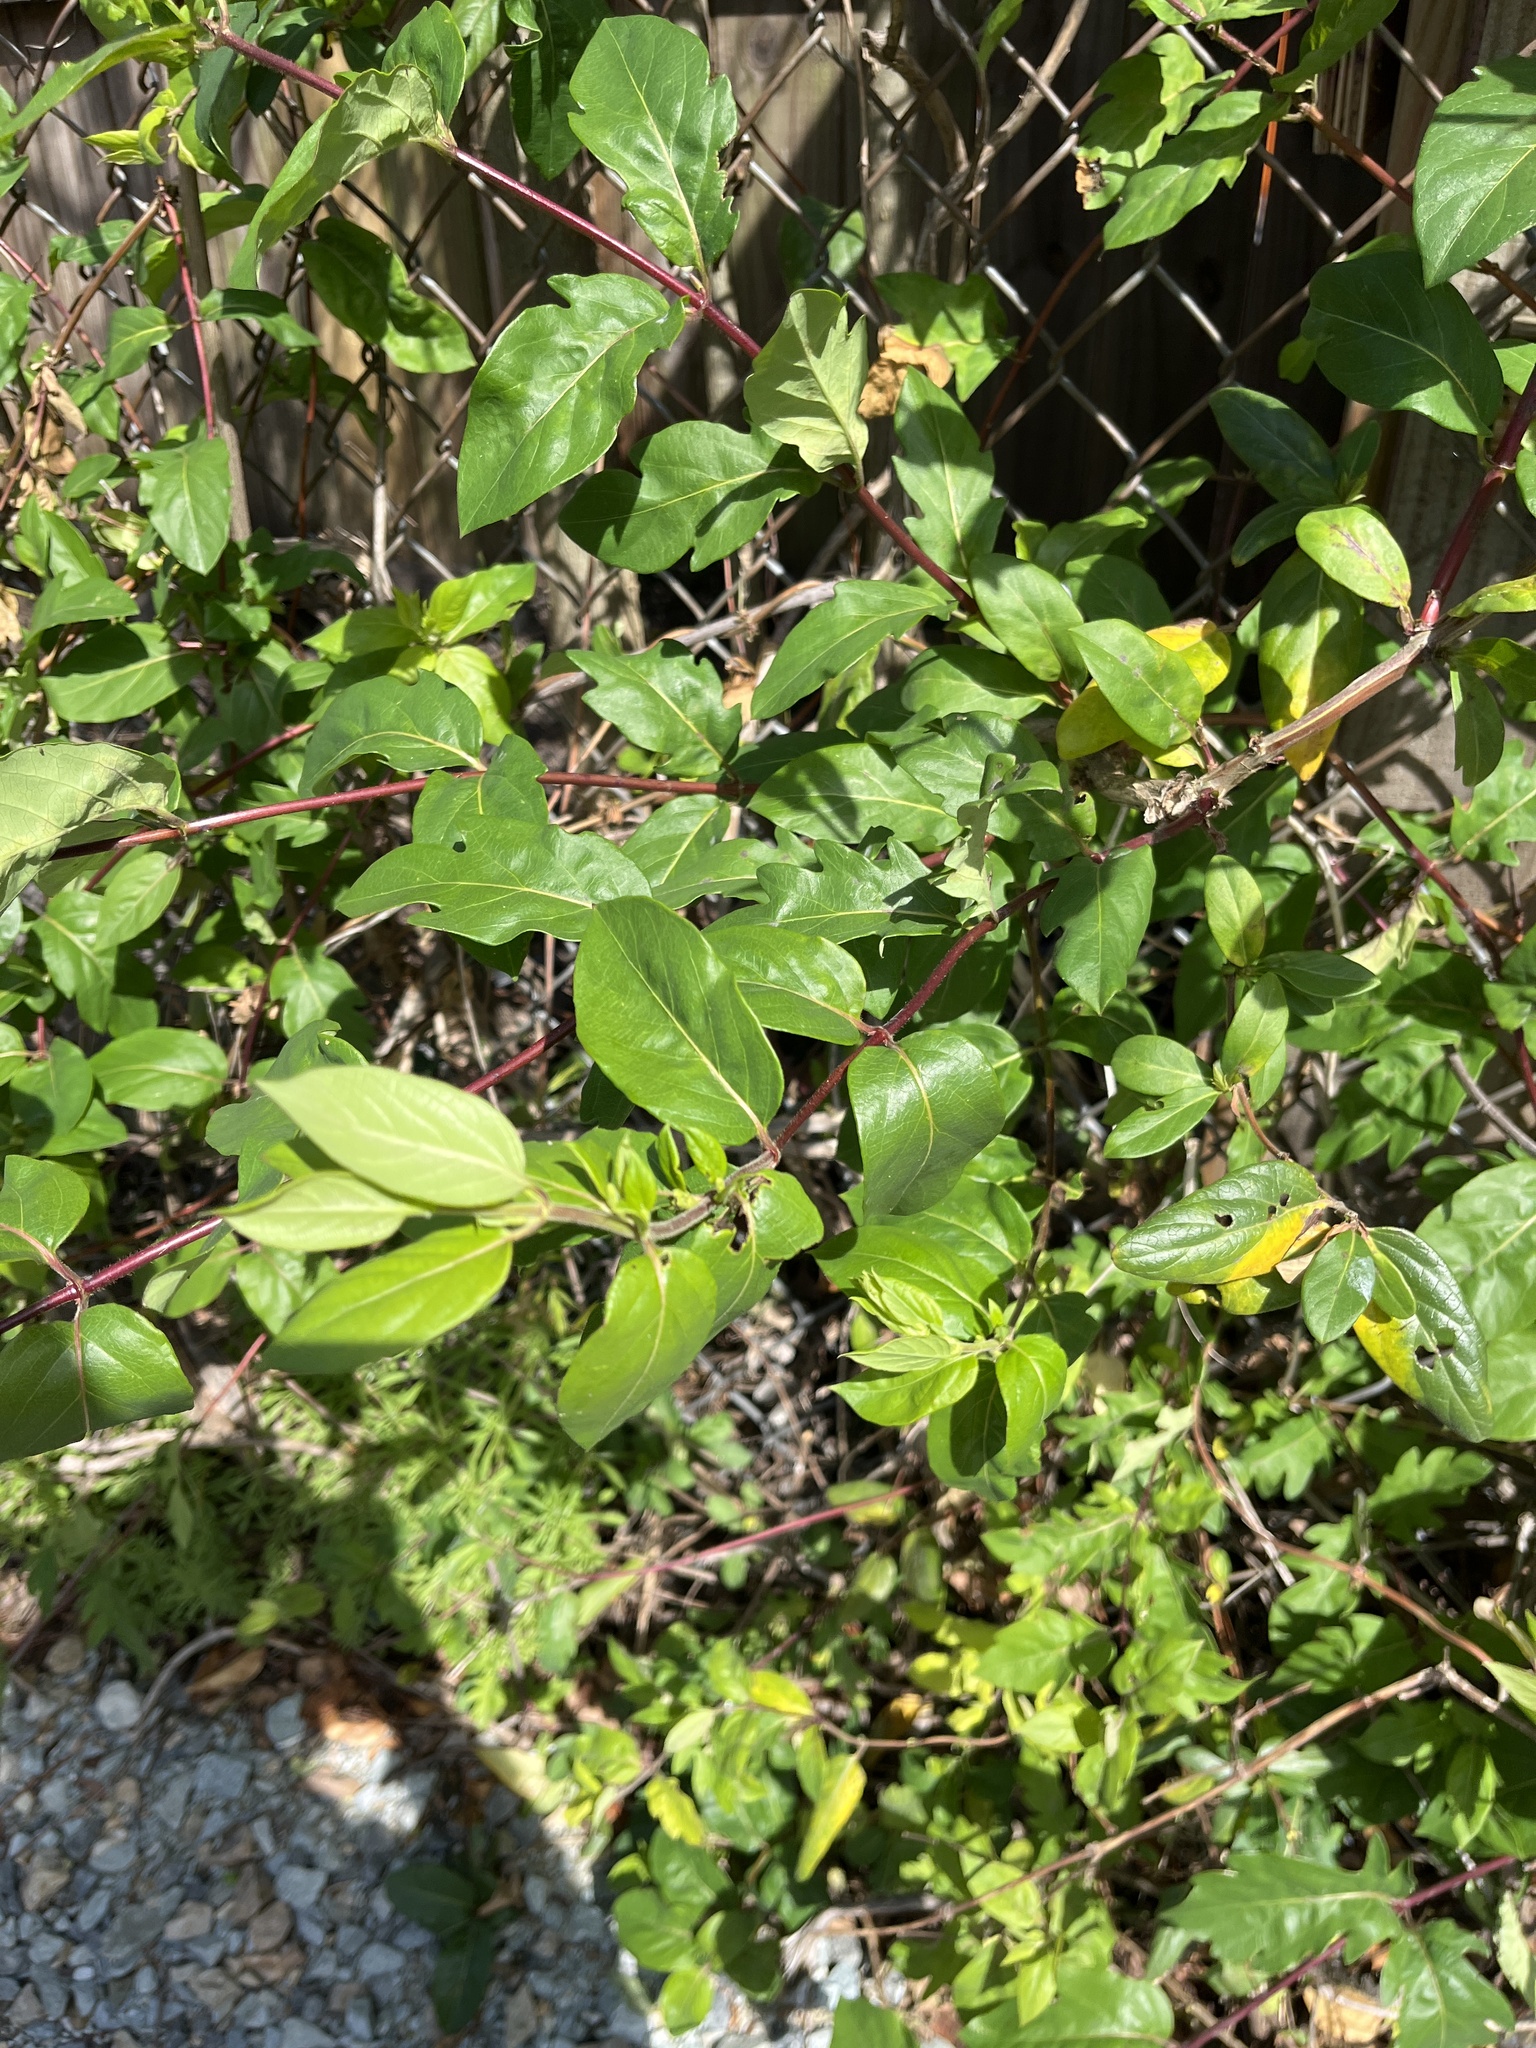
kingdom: Plantae
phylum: Tracheophyta
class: Magnoliopsida
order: Dipsacales
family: Caprifoliaceae
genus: Lonicera
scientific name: Lonicera japonica
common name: Japanese honeysuckle
